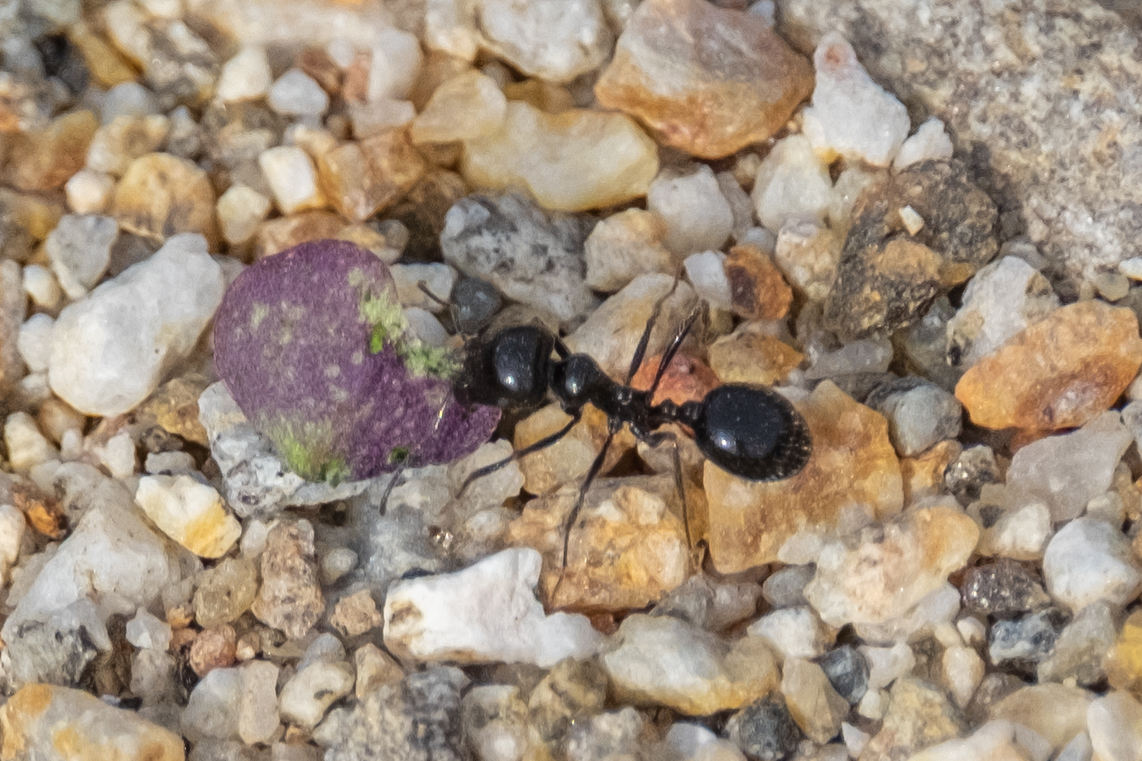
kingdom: Animalia
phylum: Arthropoda
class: Insecta
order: Hymenoptera
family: Formicidae
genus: Messor
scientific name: Messor pergandei
